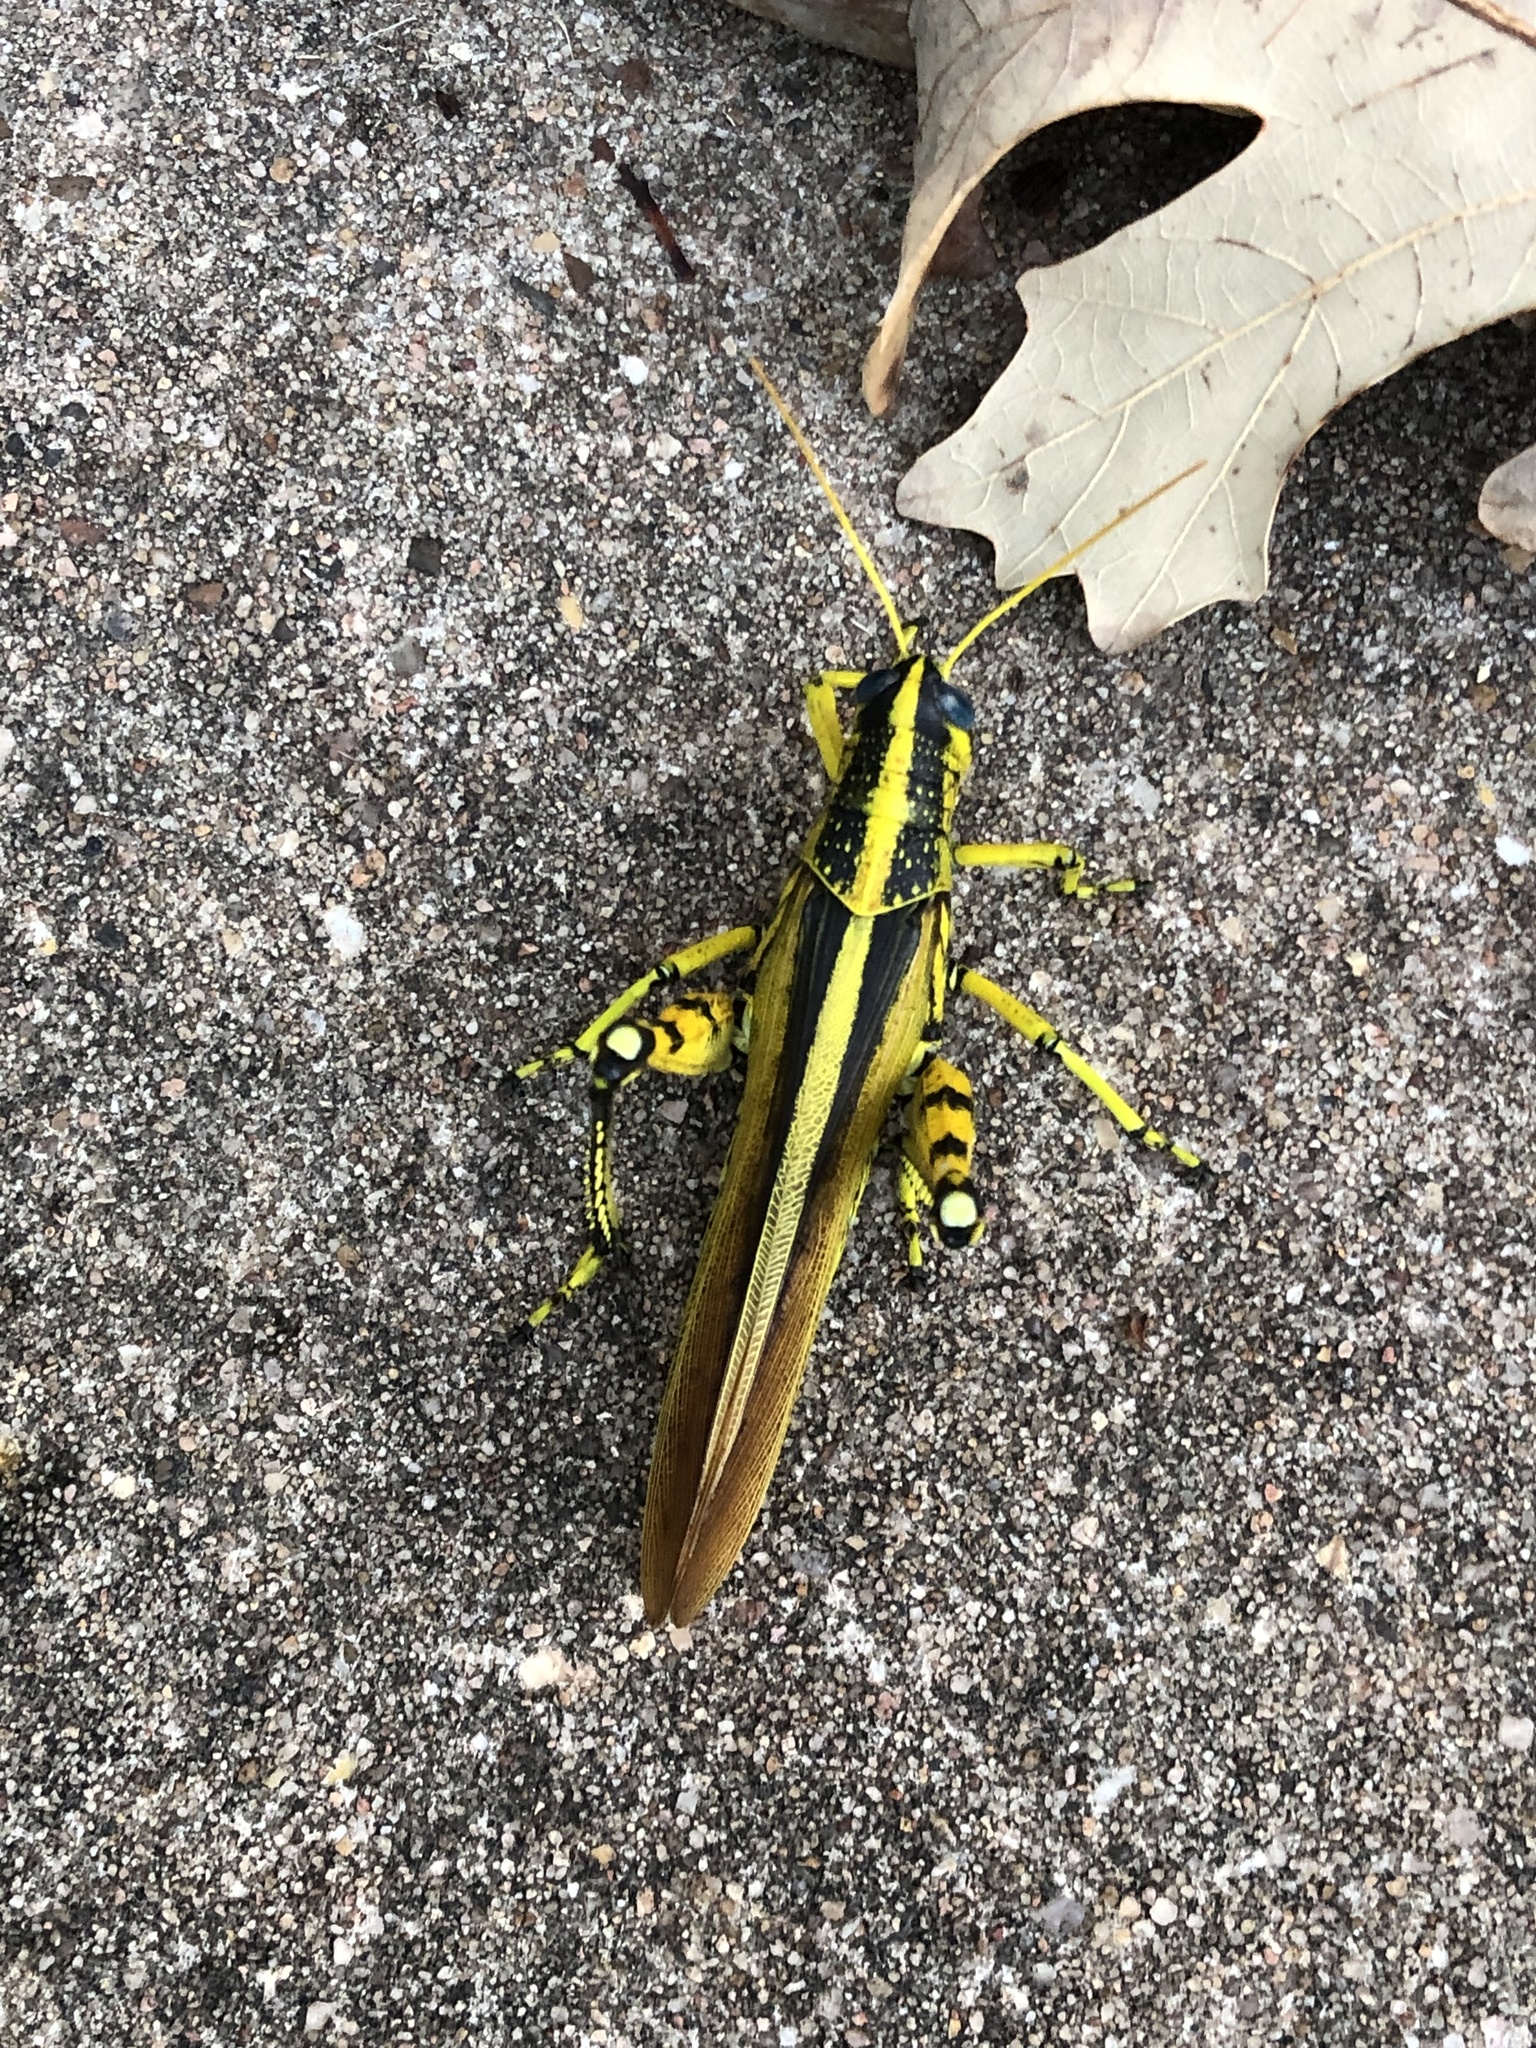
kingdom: Animalia
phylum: Arthropoda
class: Insecta
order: Orthoptera
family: Acrididae
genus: Schistocerca
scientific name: Schistocerca lineata
